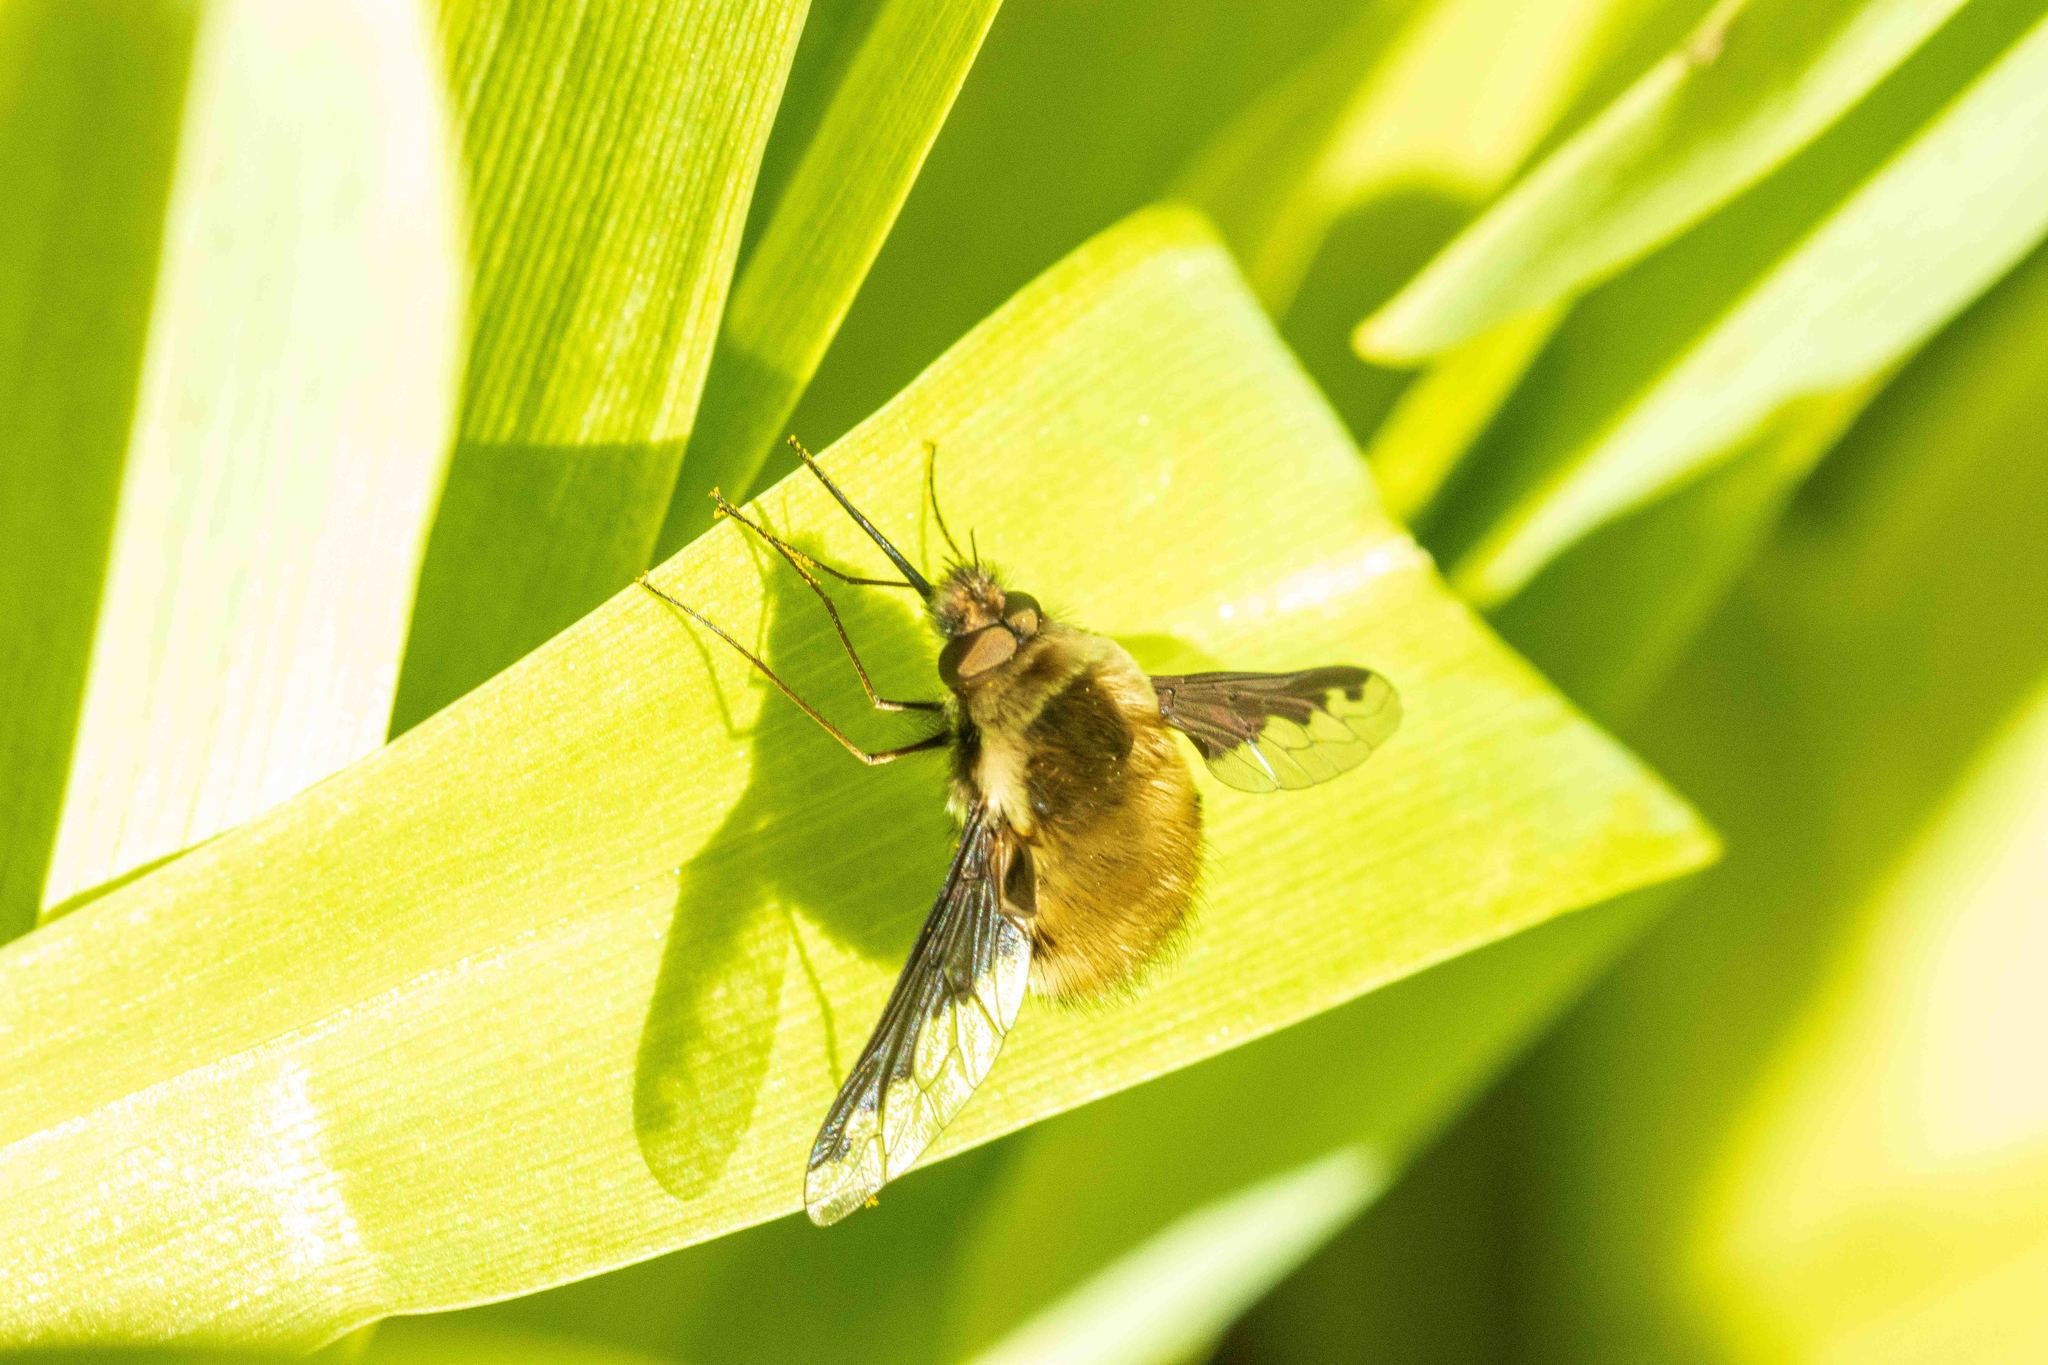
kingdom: Animalia
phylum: Arthropoda
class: Insecta
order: Diptera
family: Bombyliidae
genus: Bombylius
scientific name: Bombylius major
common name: Bee fly
